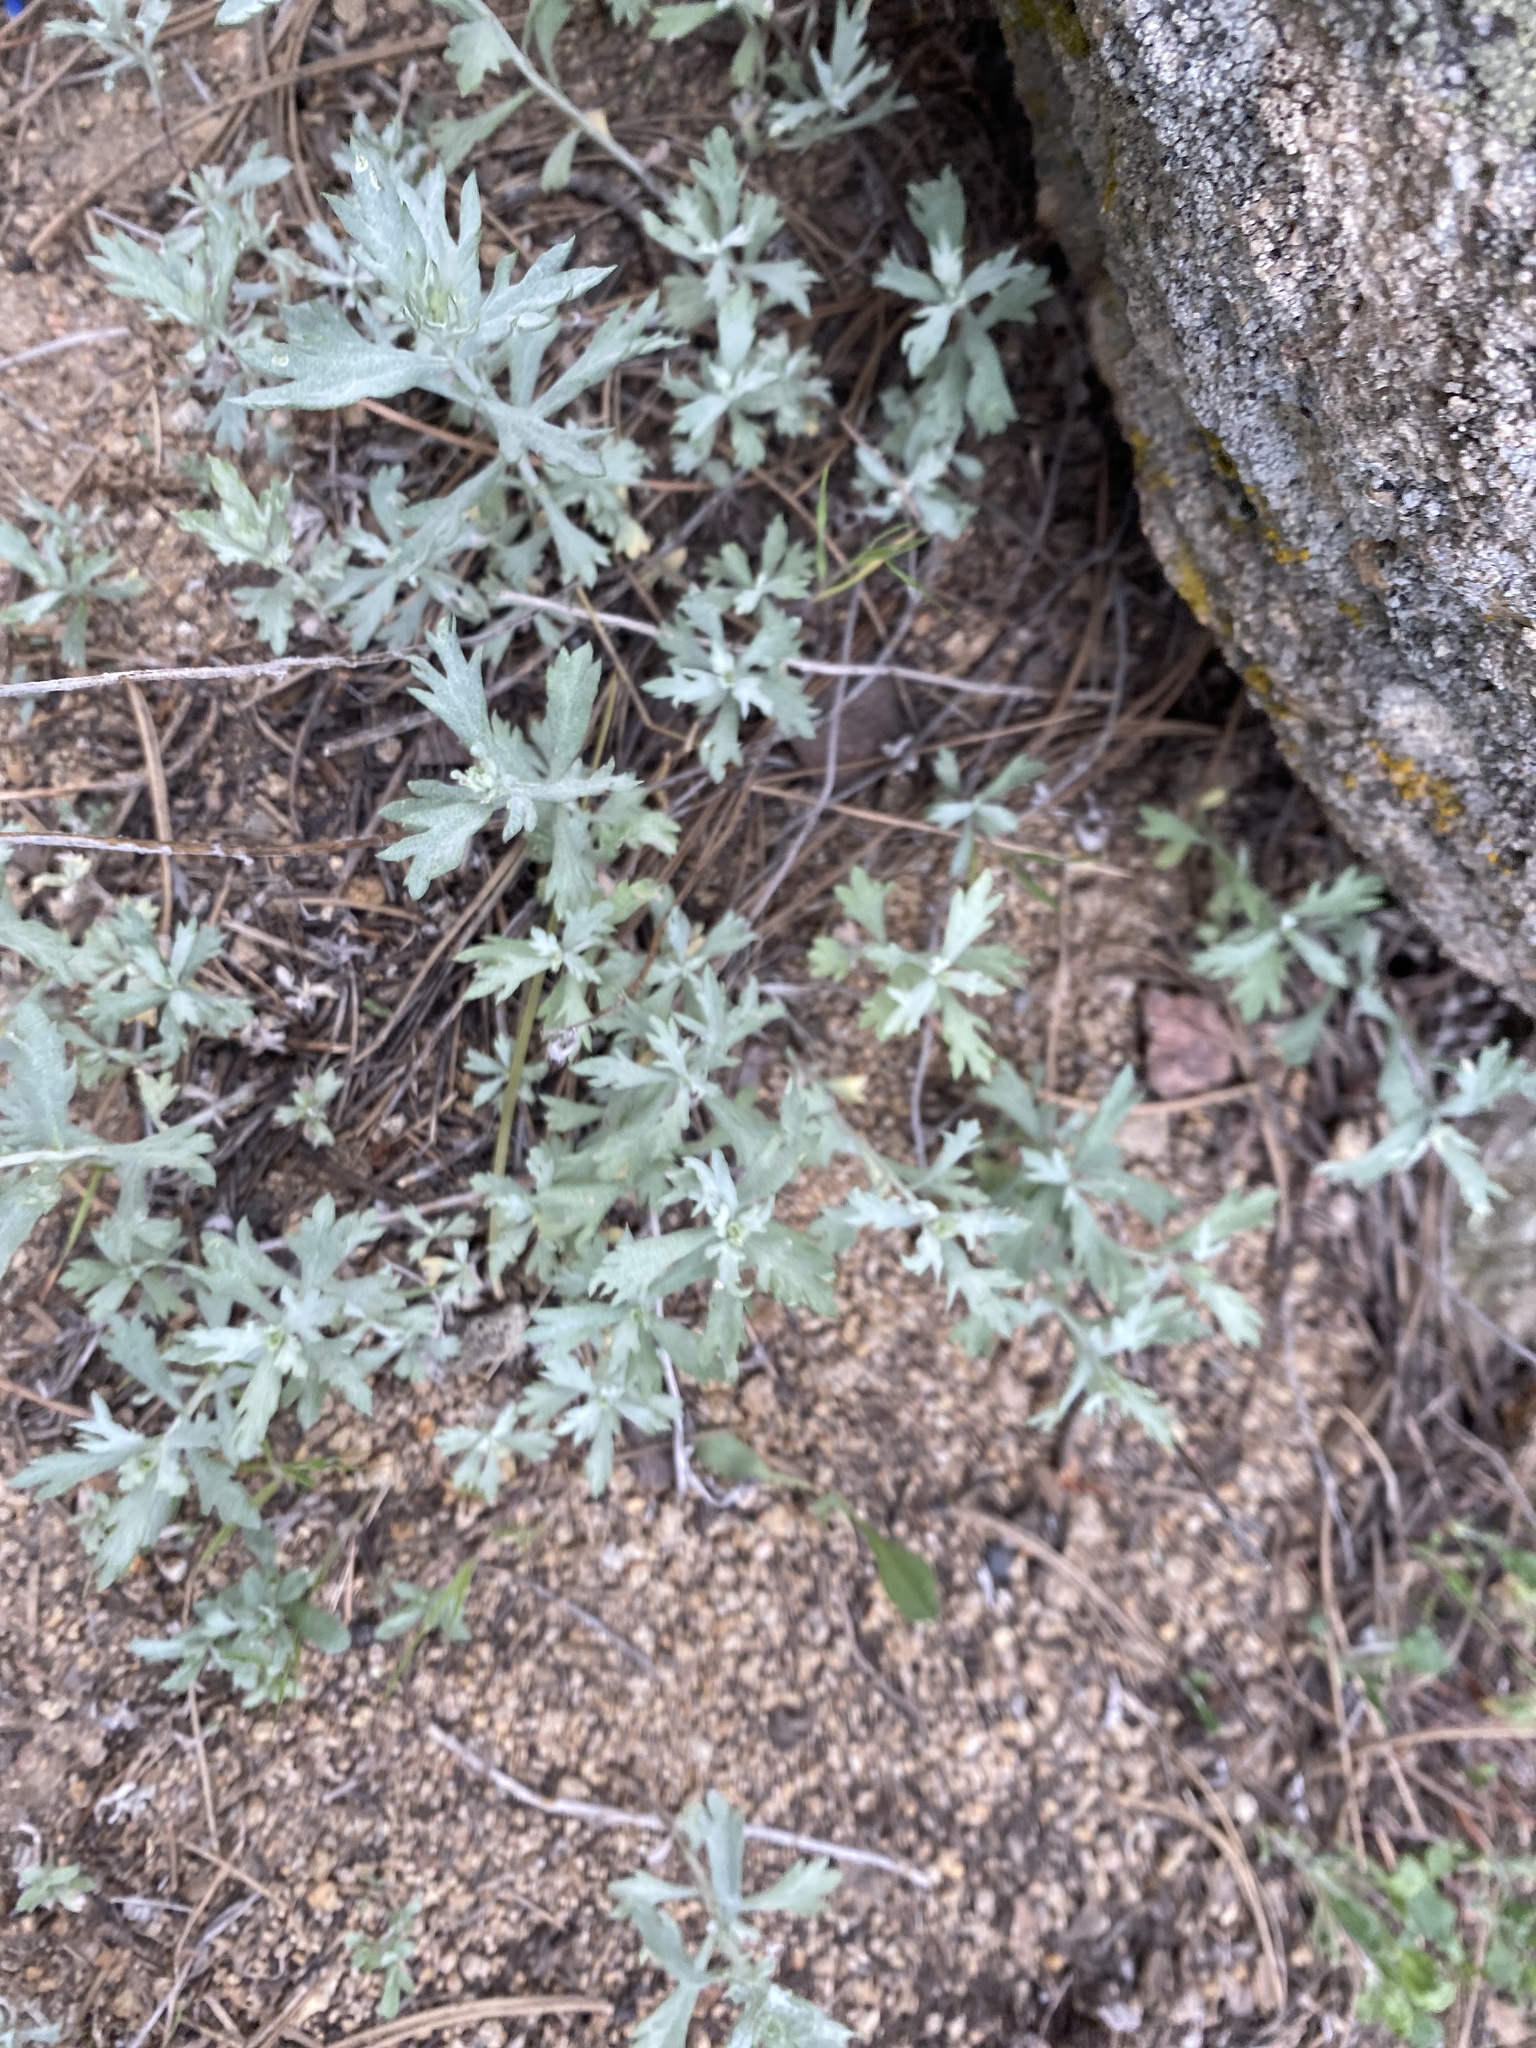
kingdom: Plantae
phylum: Tracheophyta
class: Magnoliopsida
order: Asterales
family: Asteraceae
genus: Artemisia
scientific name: Artemisia ludoviciana
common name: Western mugwort
